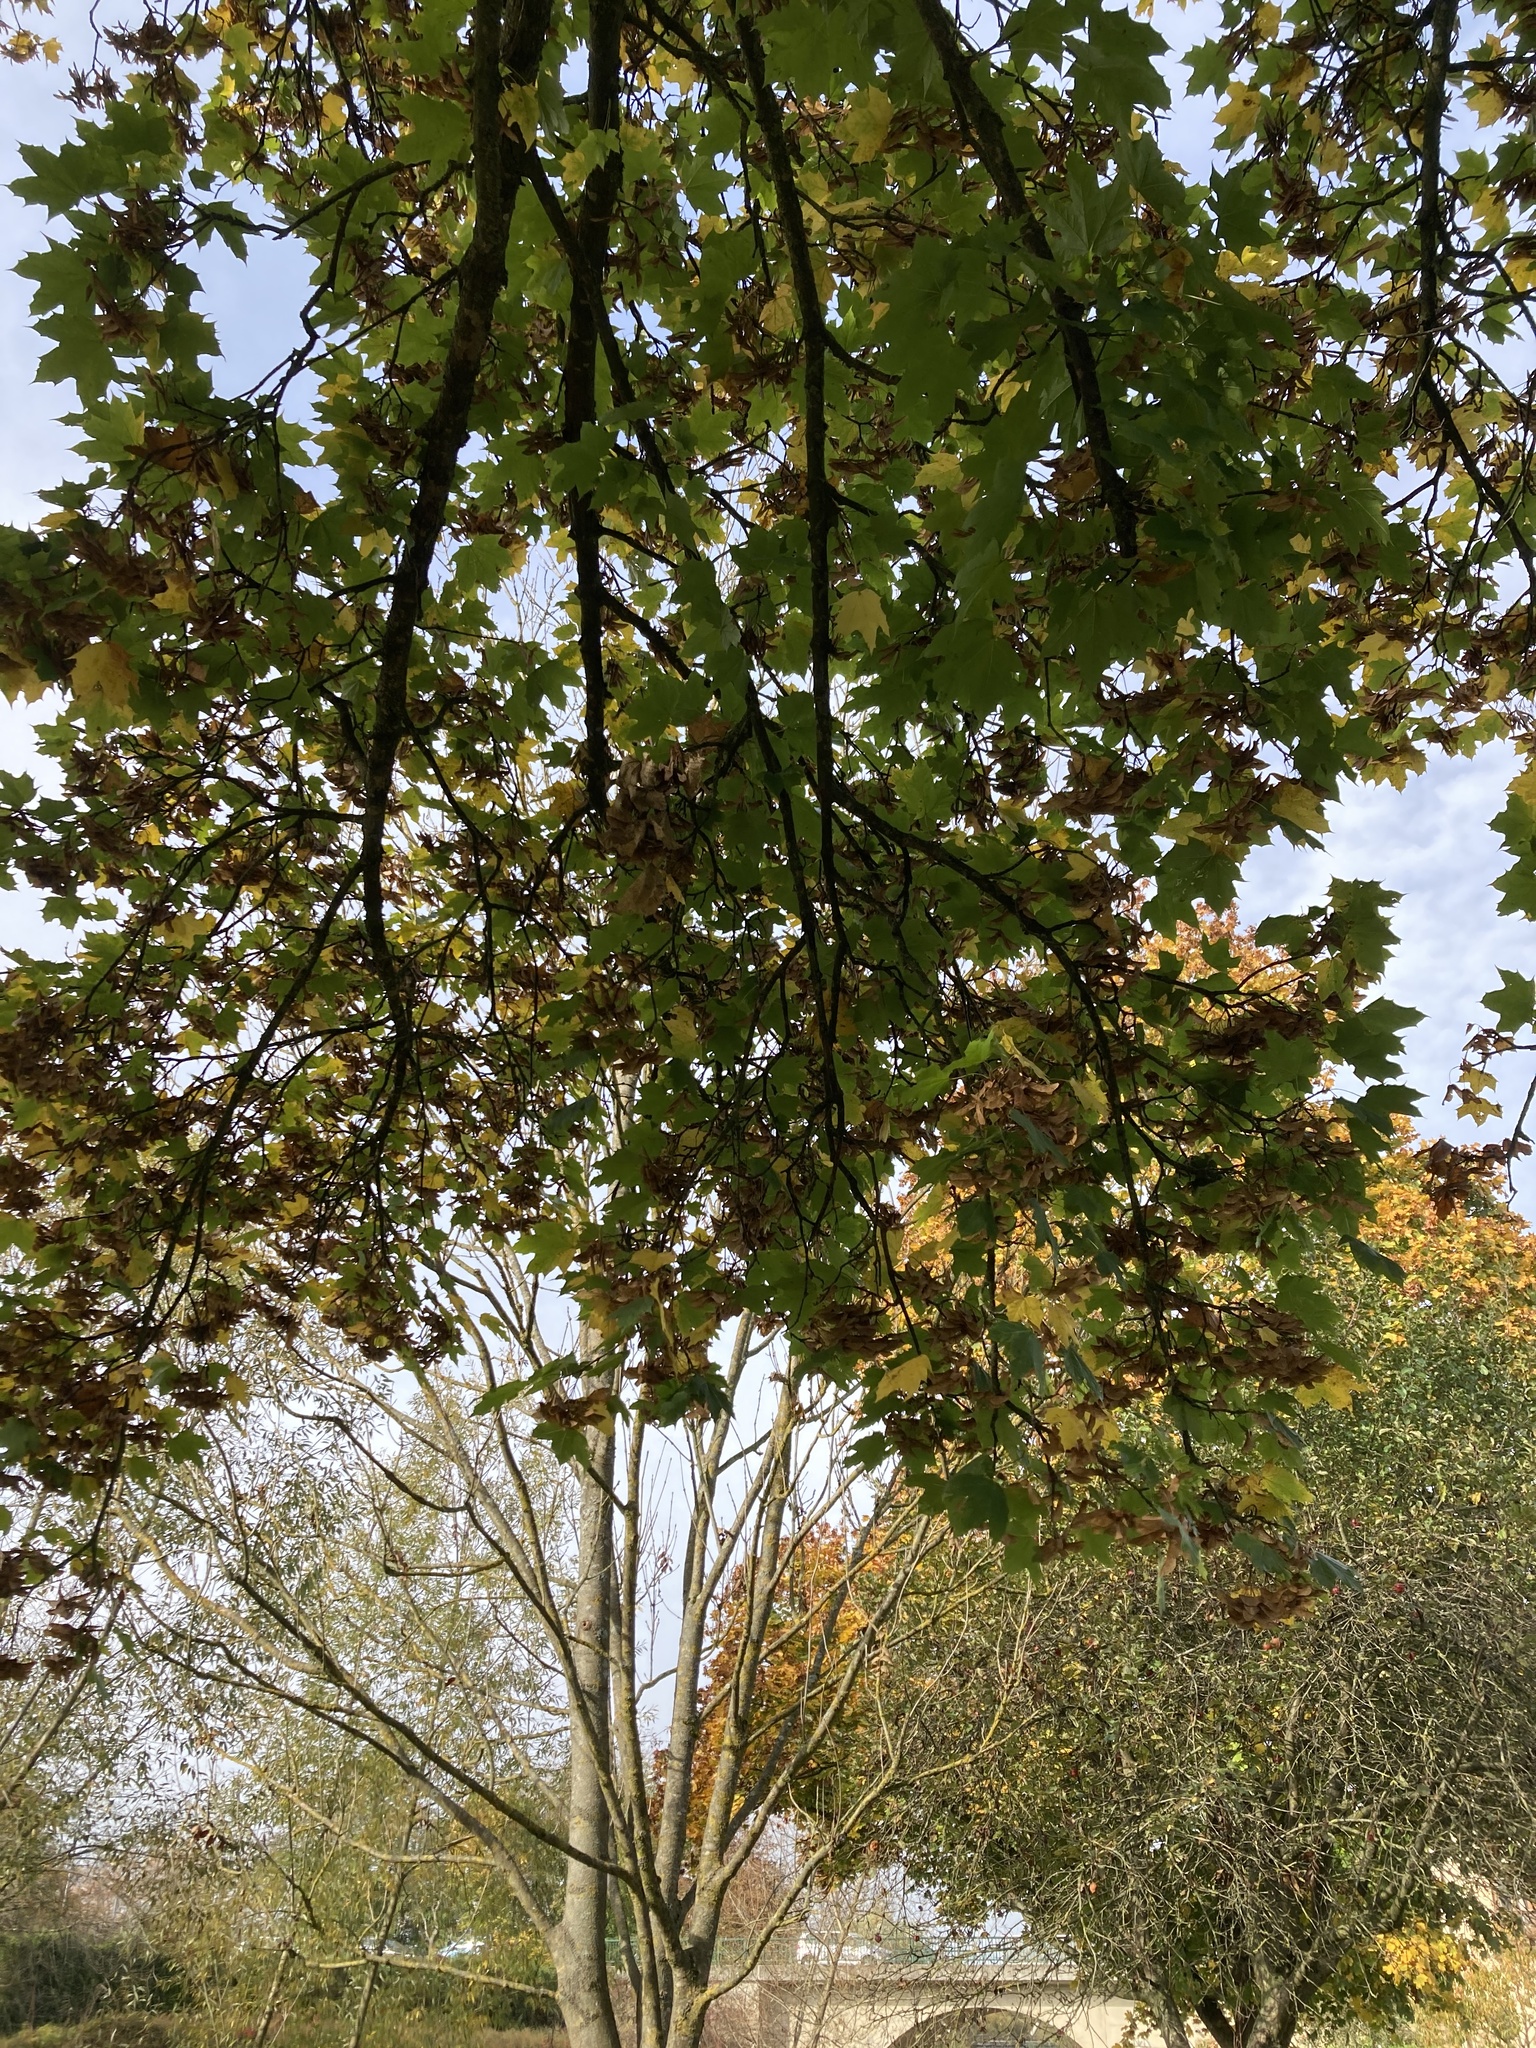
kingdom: Plantae
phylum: Tracheophyta
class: Magnoliopsida
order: Sapindales
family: Sapindaceae
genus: Acer
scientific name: Acer platanoides
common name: Norway maple
